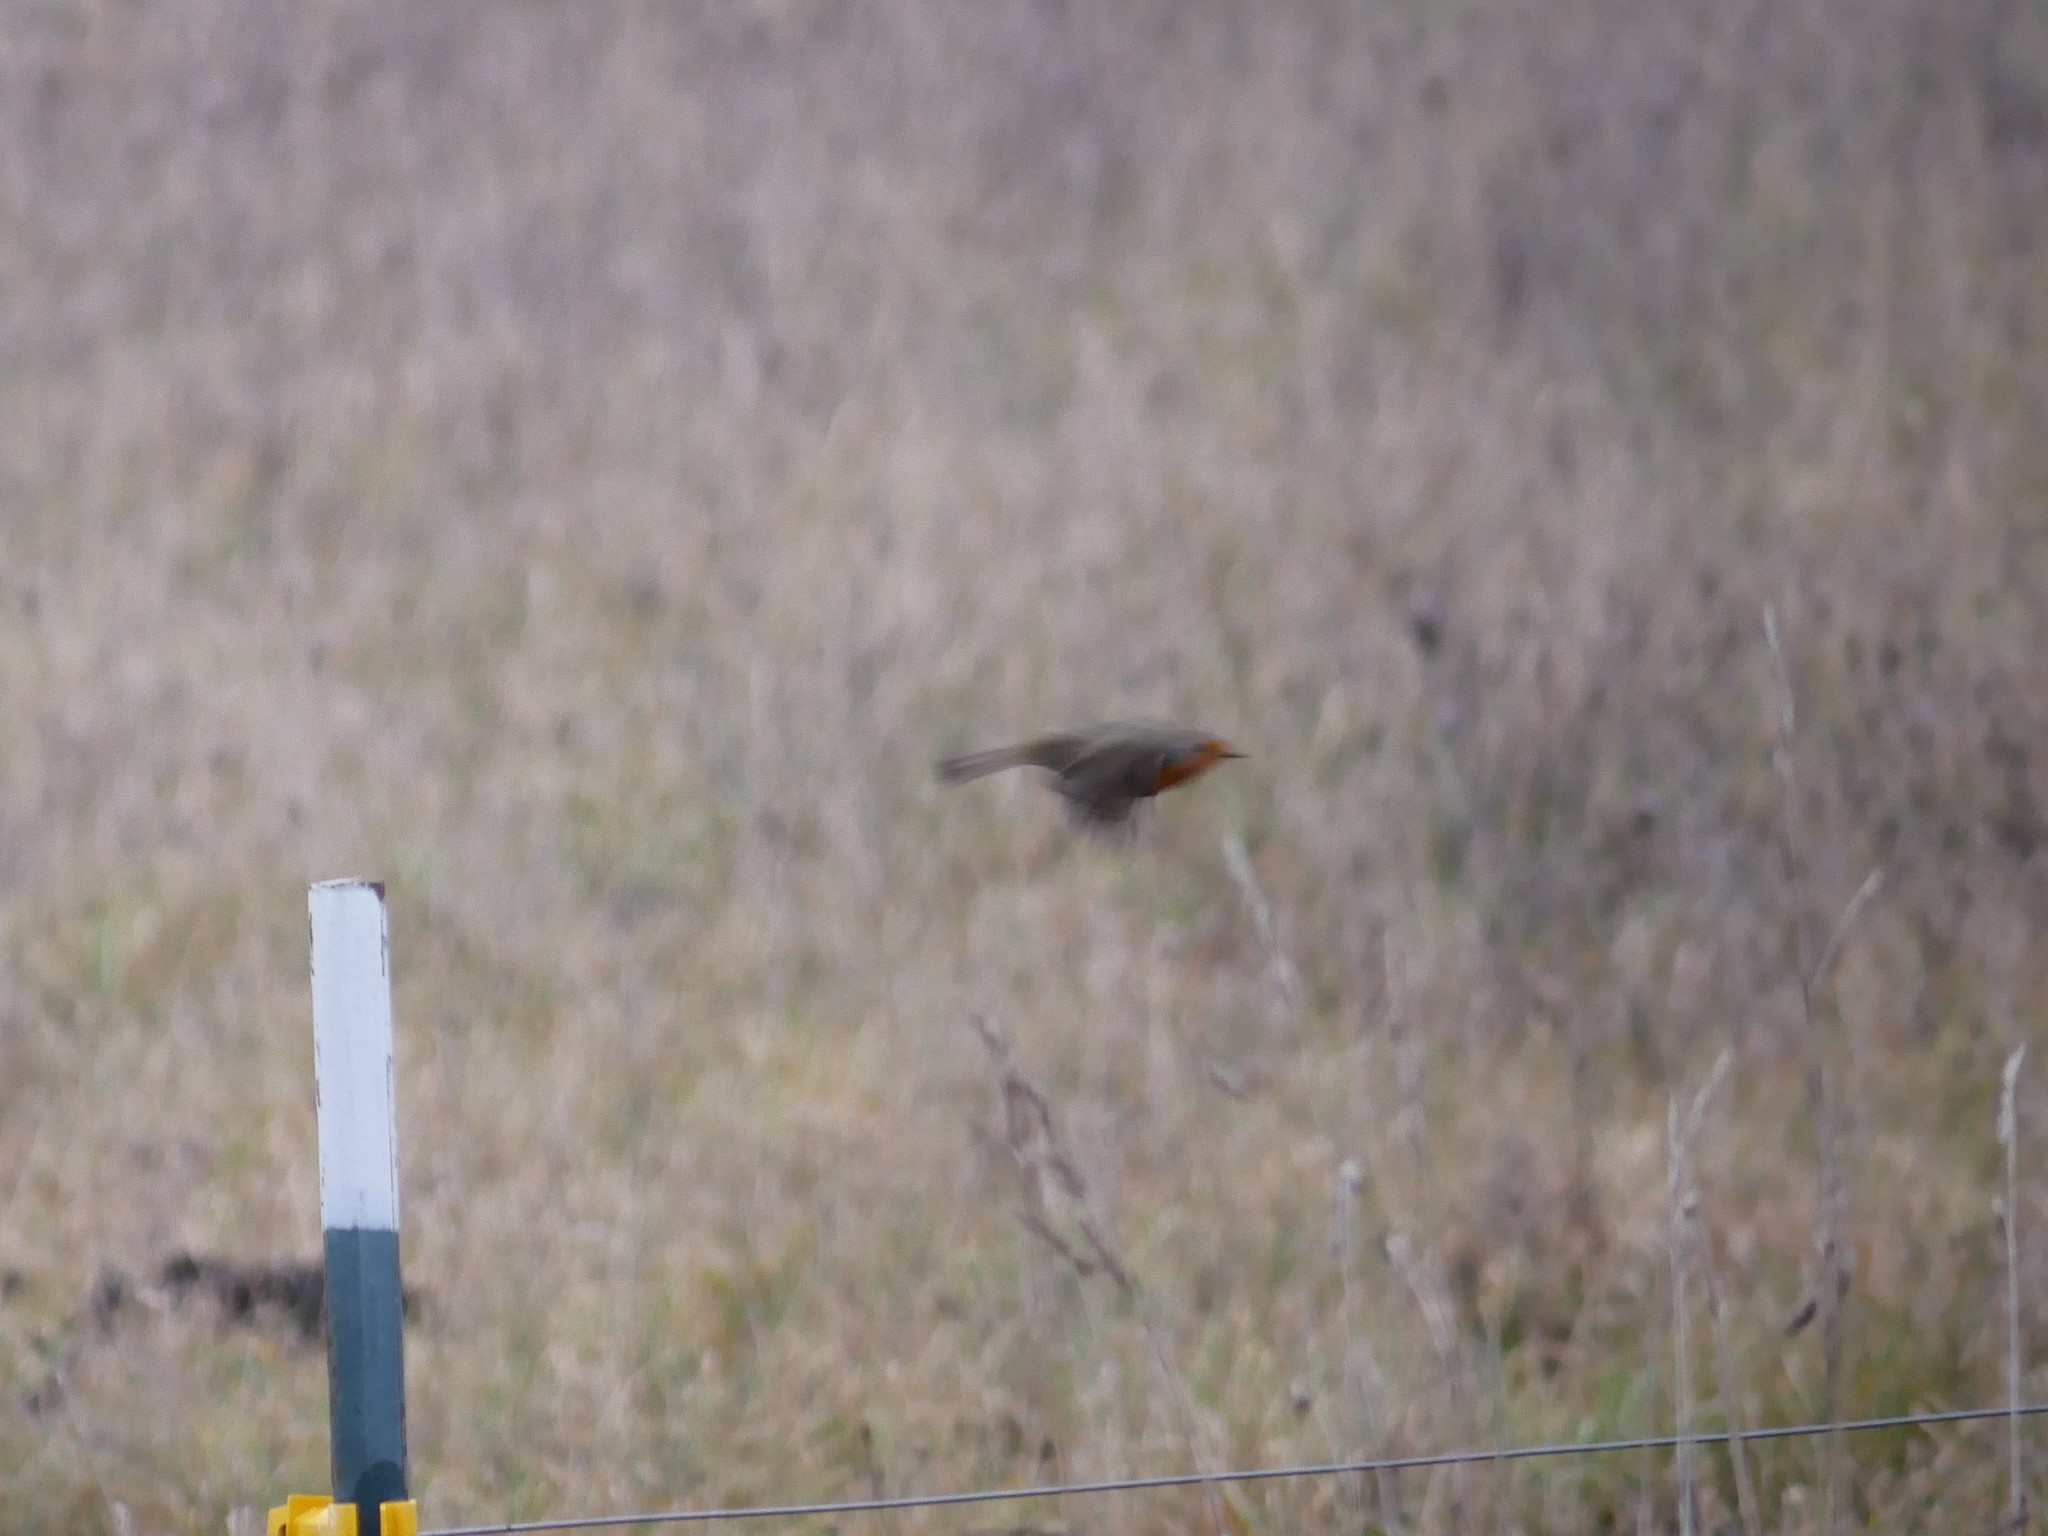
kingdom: Animalia
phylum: Chordata
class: Aves
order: Passeriformes
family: Muscicapidae
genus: Erithacus
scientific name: Erithacus rubecula
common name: European robin
